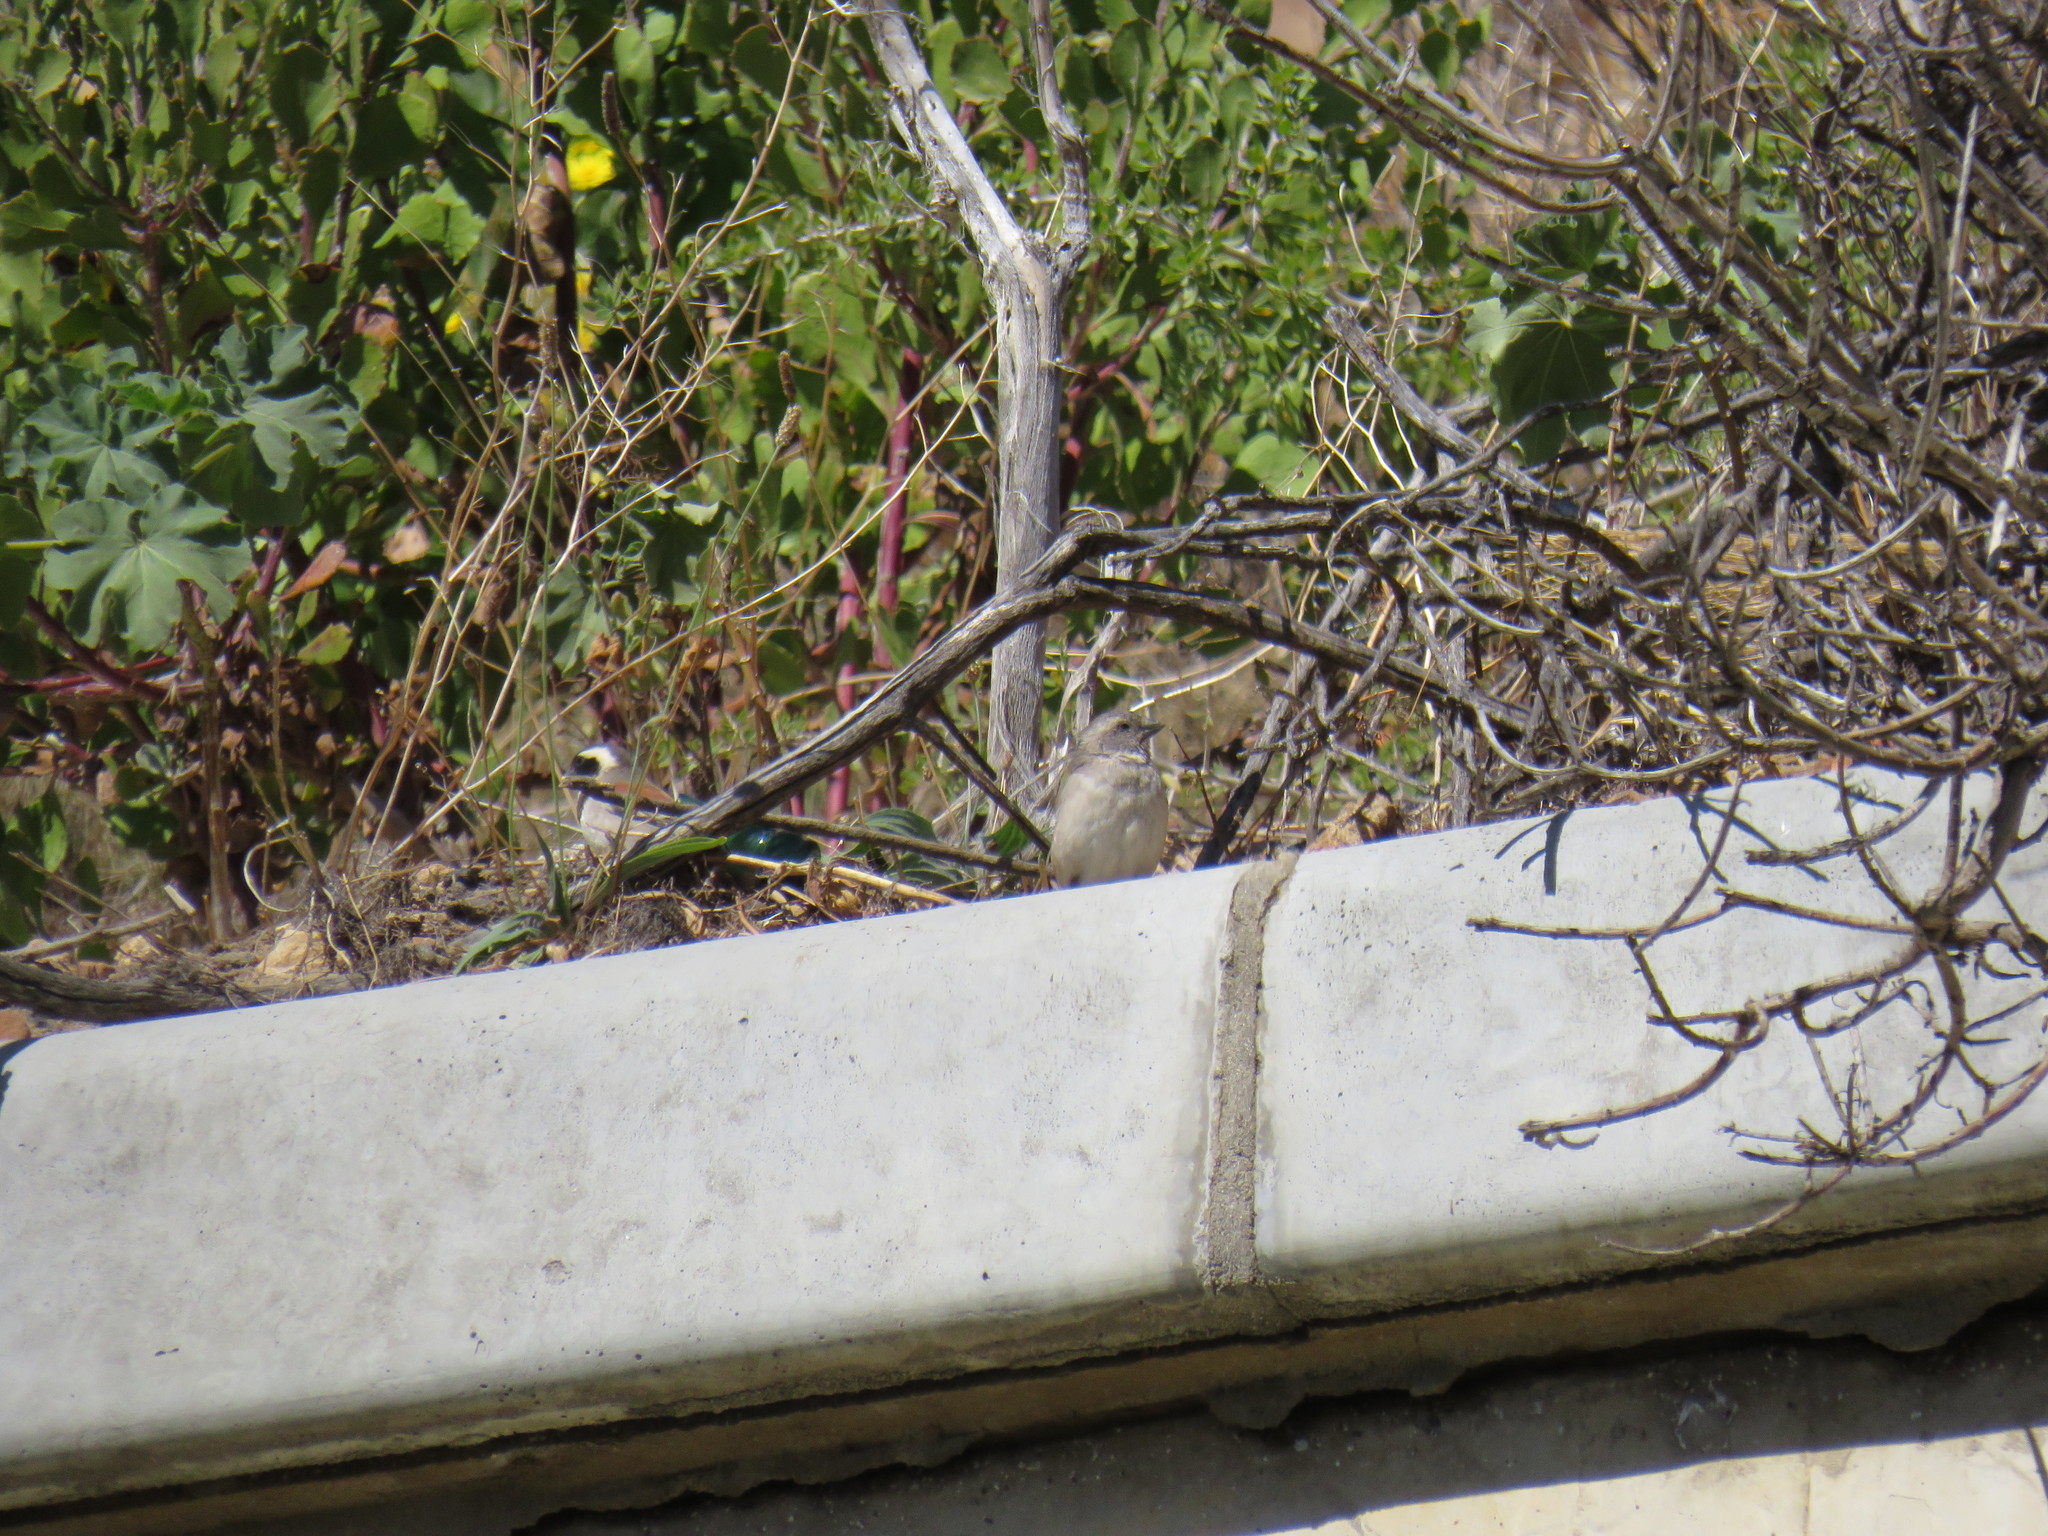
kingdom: Animalia
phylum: Chordata
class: Aves
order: Passeriformes
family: Passeridae
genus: Passer
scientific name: Passer melanurus
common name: Cape sparrow
